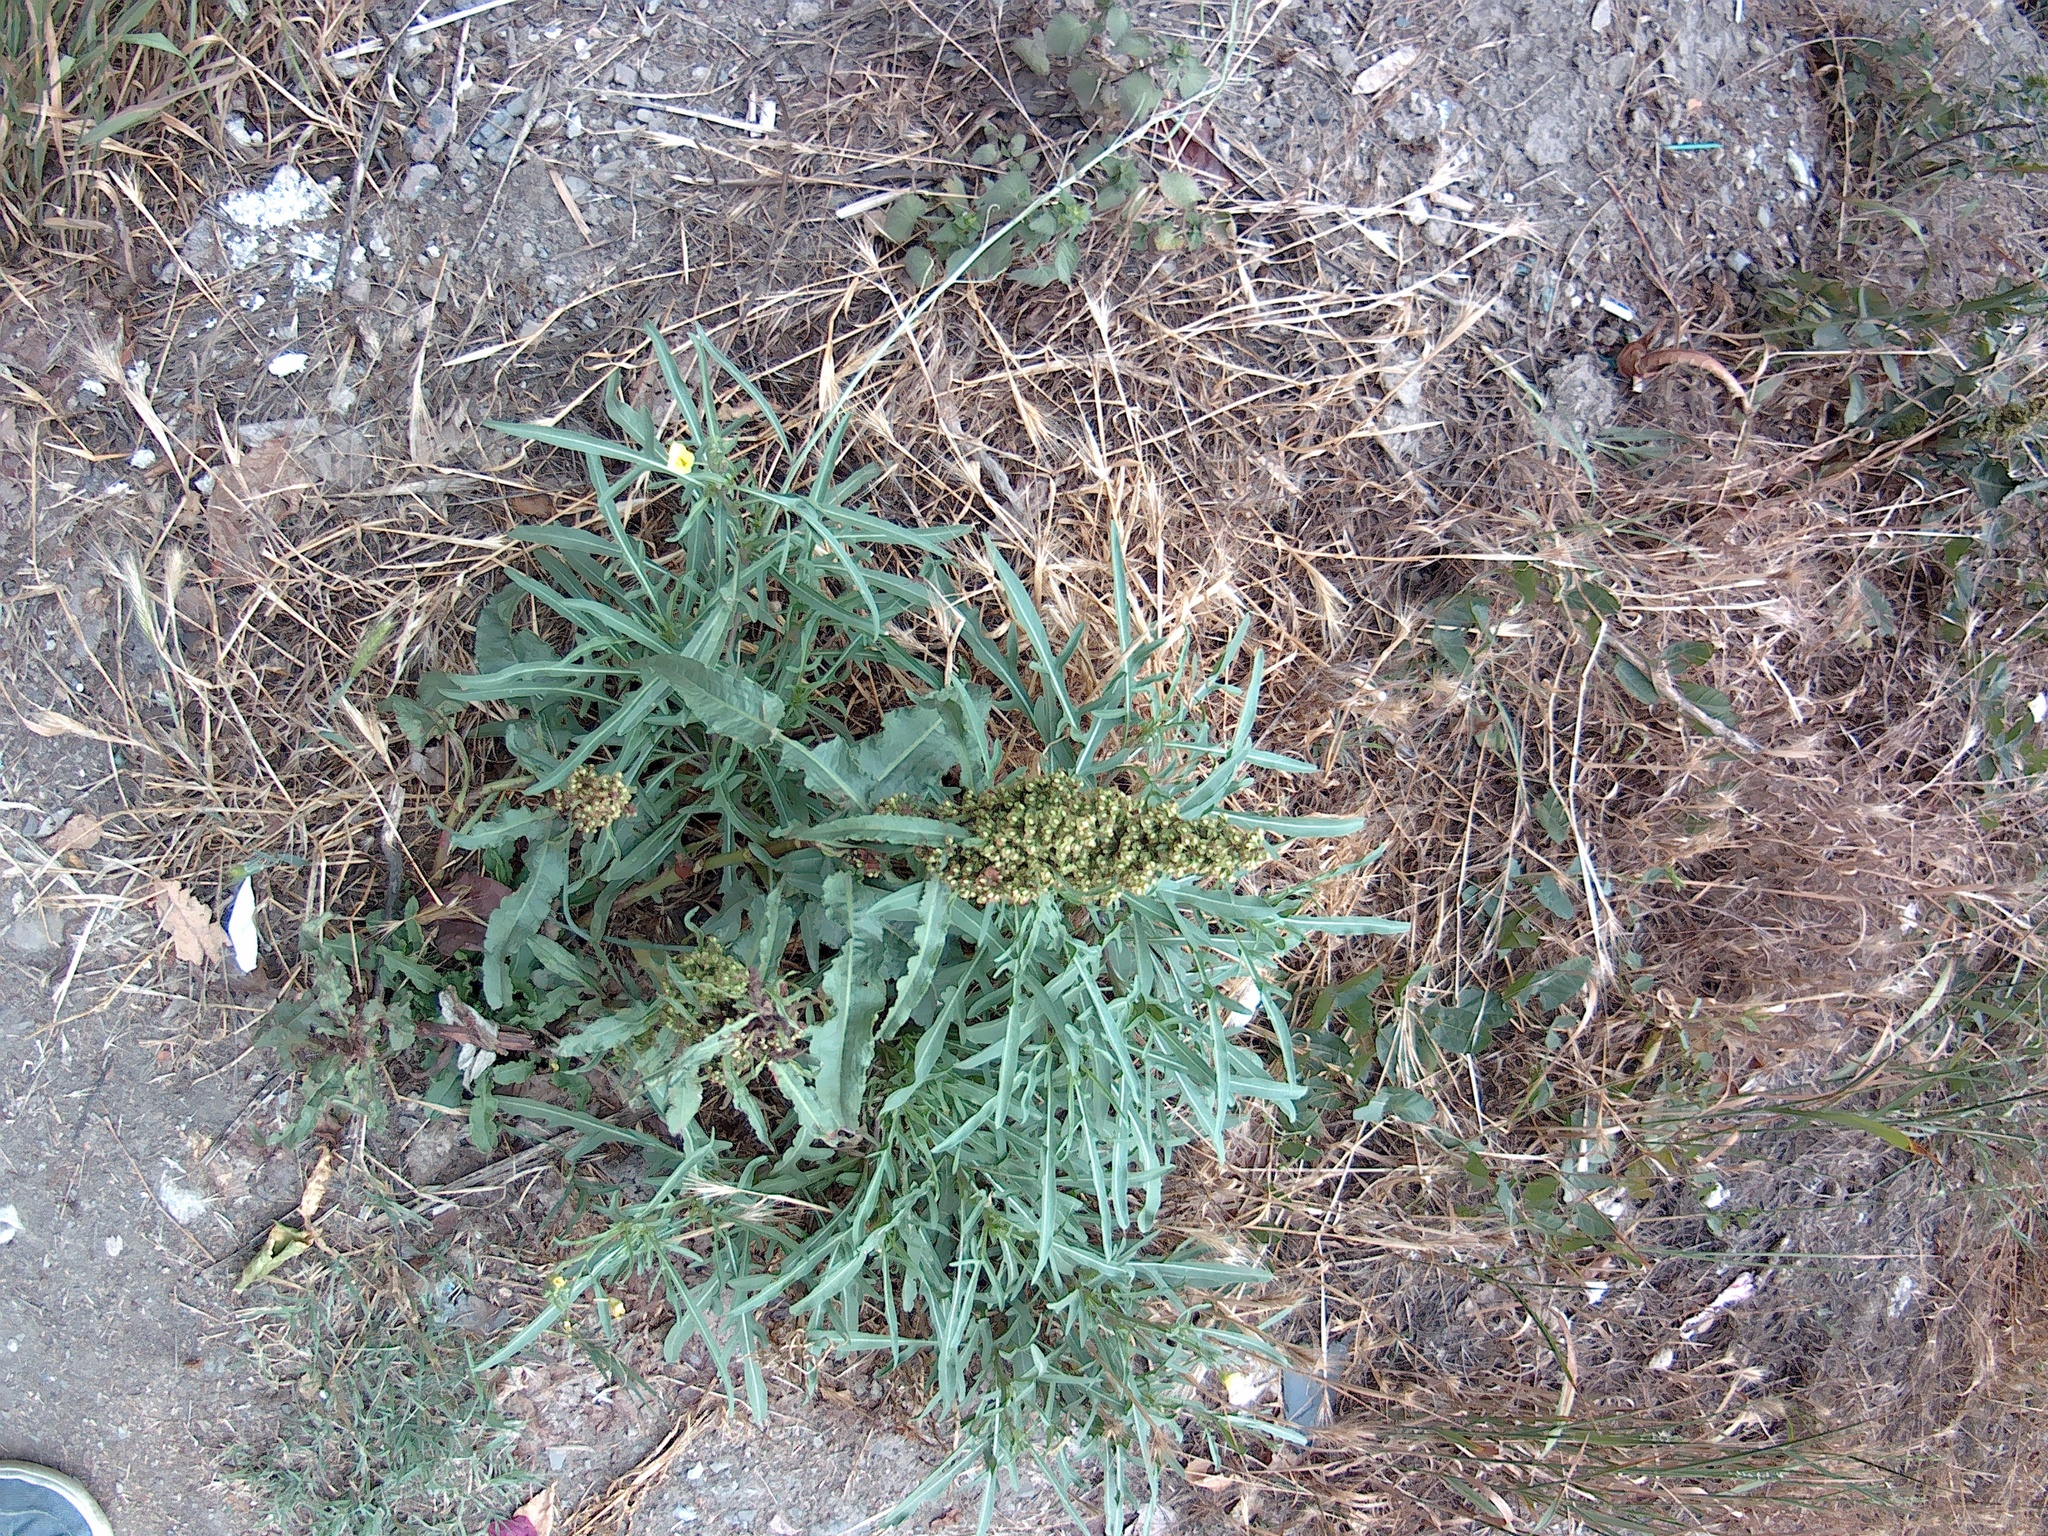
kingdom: Plantae
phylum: Tracheophyta
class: Magnoliopsida
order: Caryophyllales
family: Polygonaceae
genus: Rumex
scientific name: Rumex crispus
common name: Curled dock
